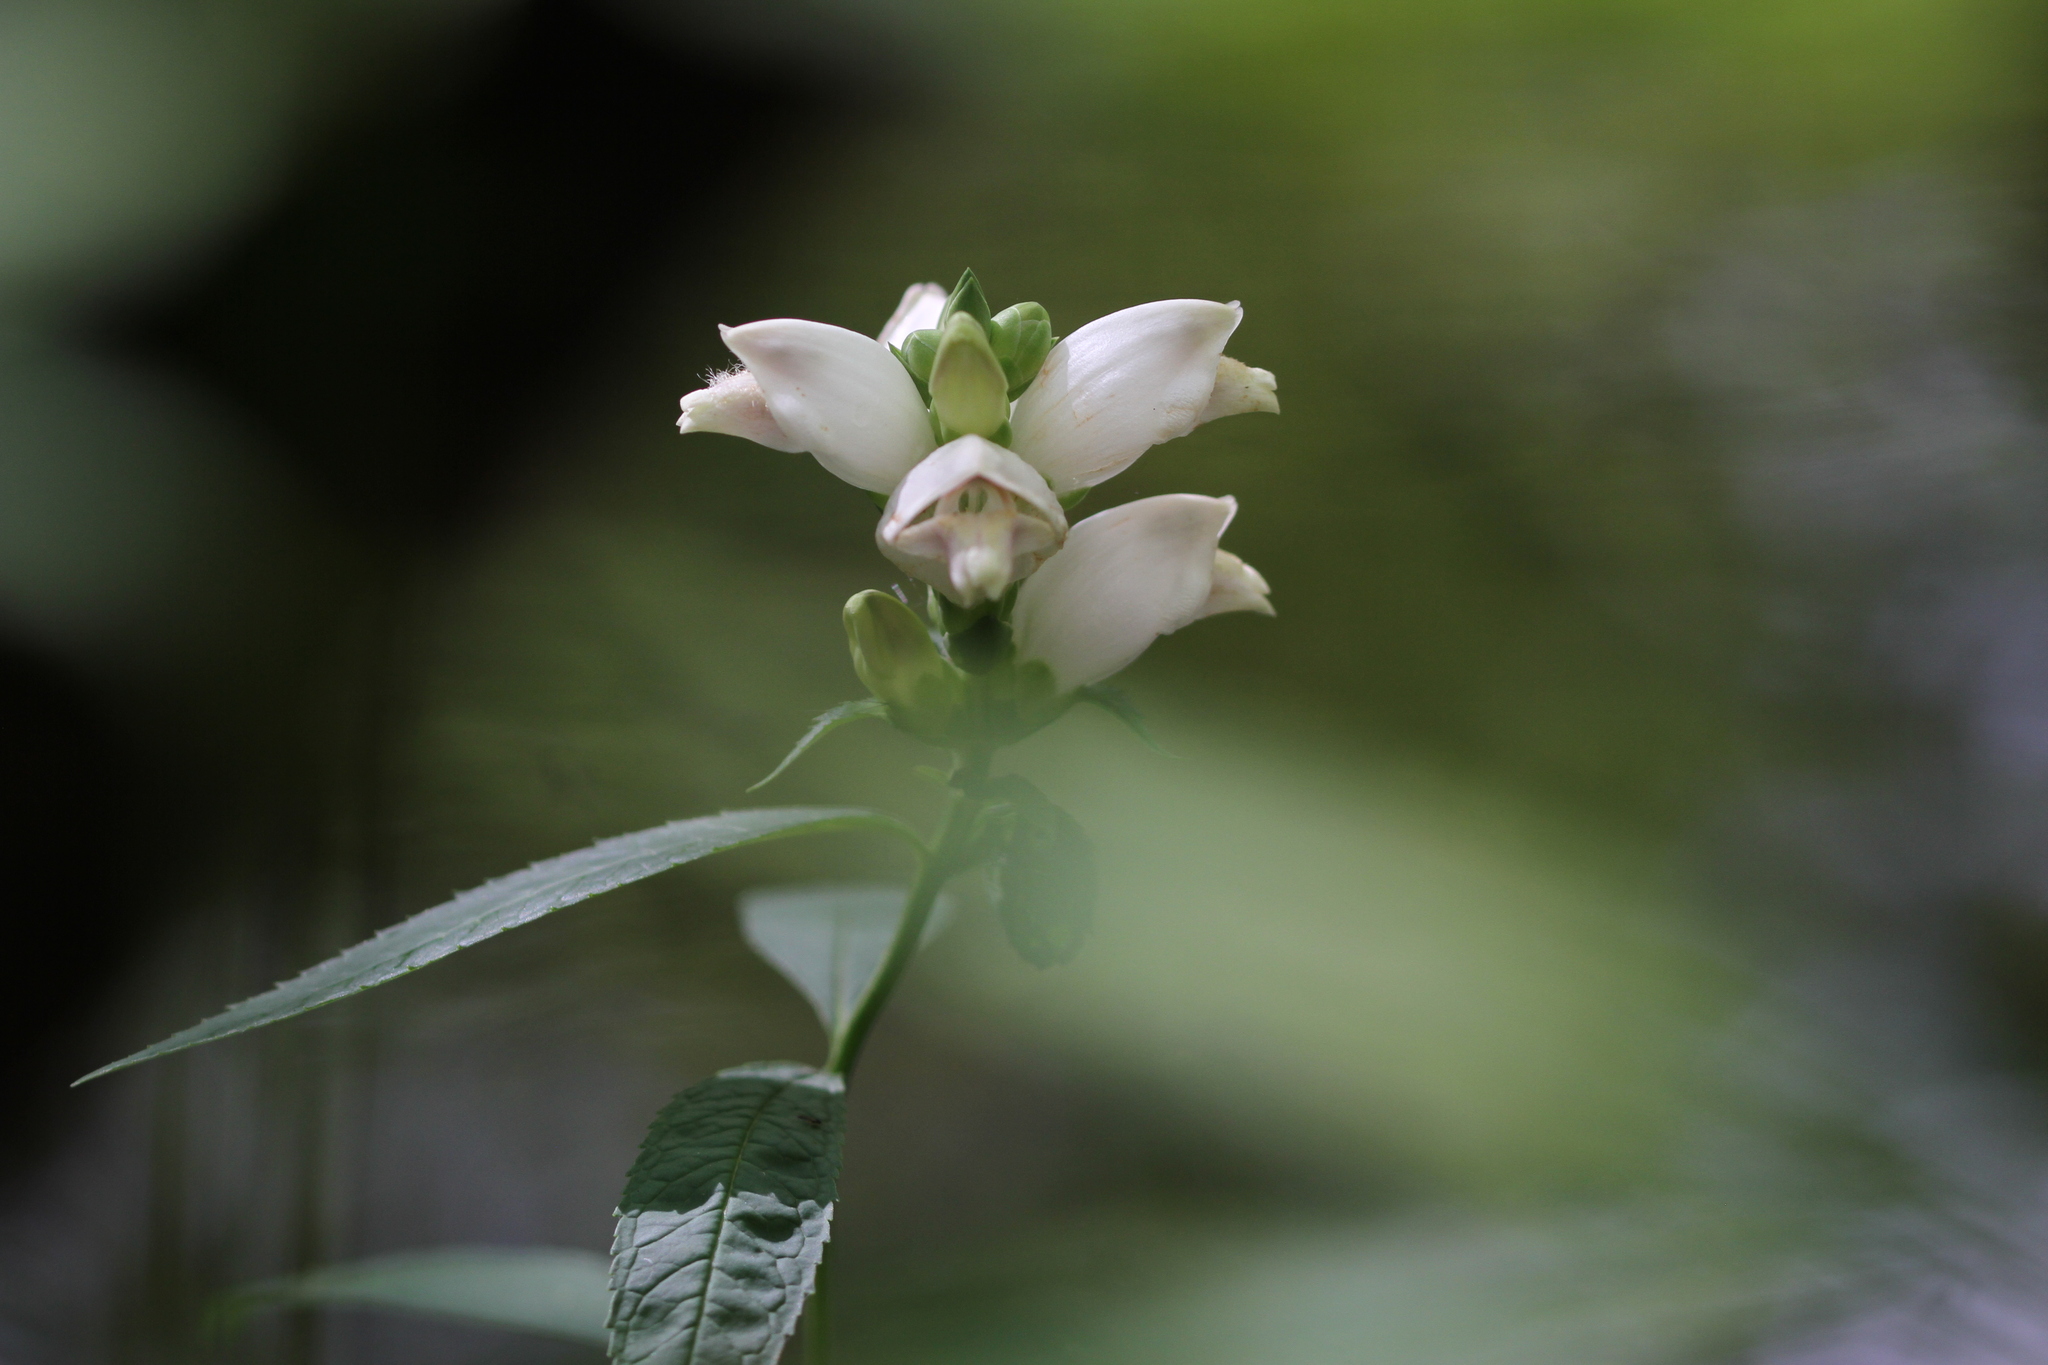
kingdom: Plantae
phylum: Tracheophyta
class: Magnoliopsida
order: Lamiales
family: Plantaginaceae
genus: Chelone
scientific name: Chelone glabra
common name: Snakehead
